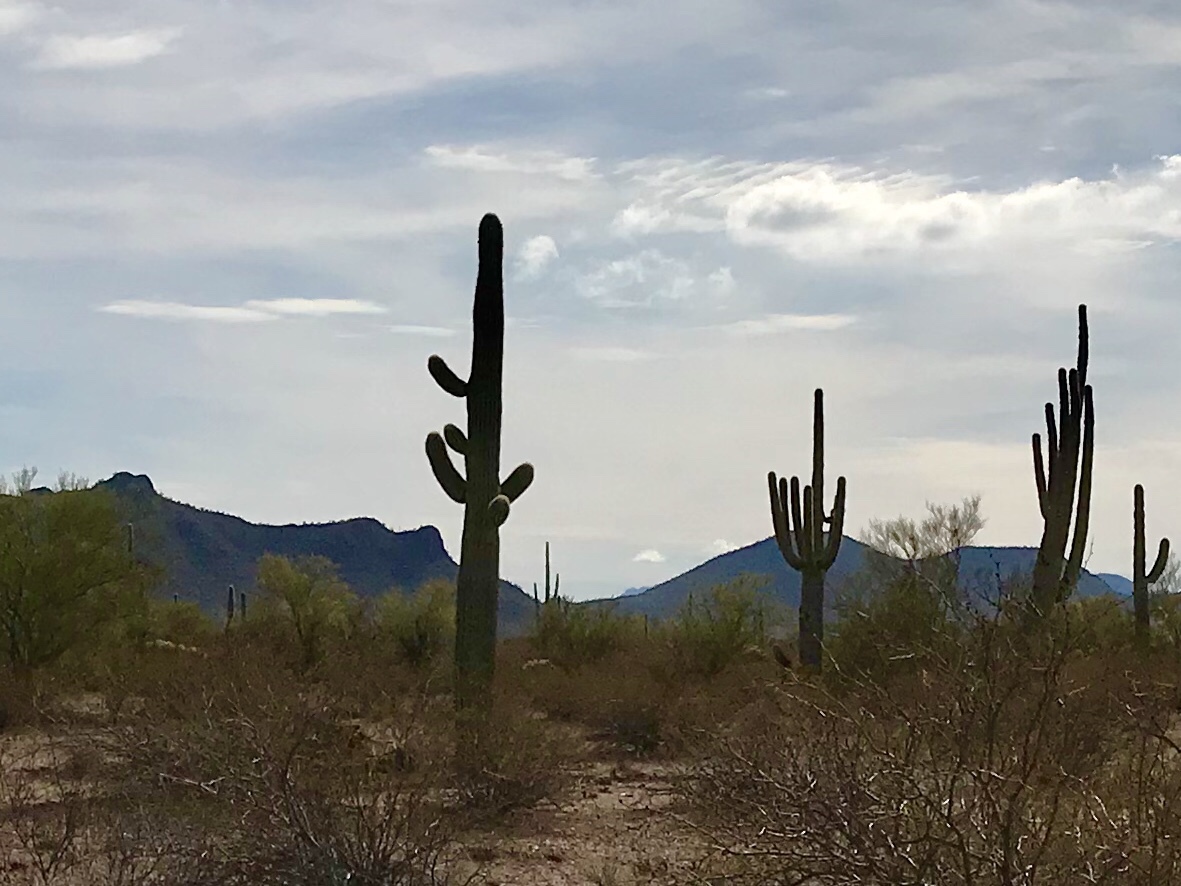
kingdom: Plantae
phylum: Tracheophyta
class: Magnoliopsida
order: Caryophyllales
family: Cactaceae
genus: Carnegiea
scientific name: Carnegiea gigantea
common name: Saguaro
